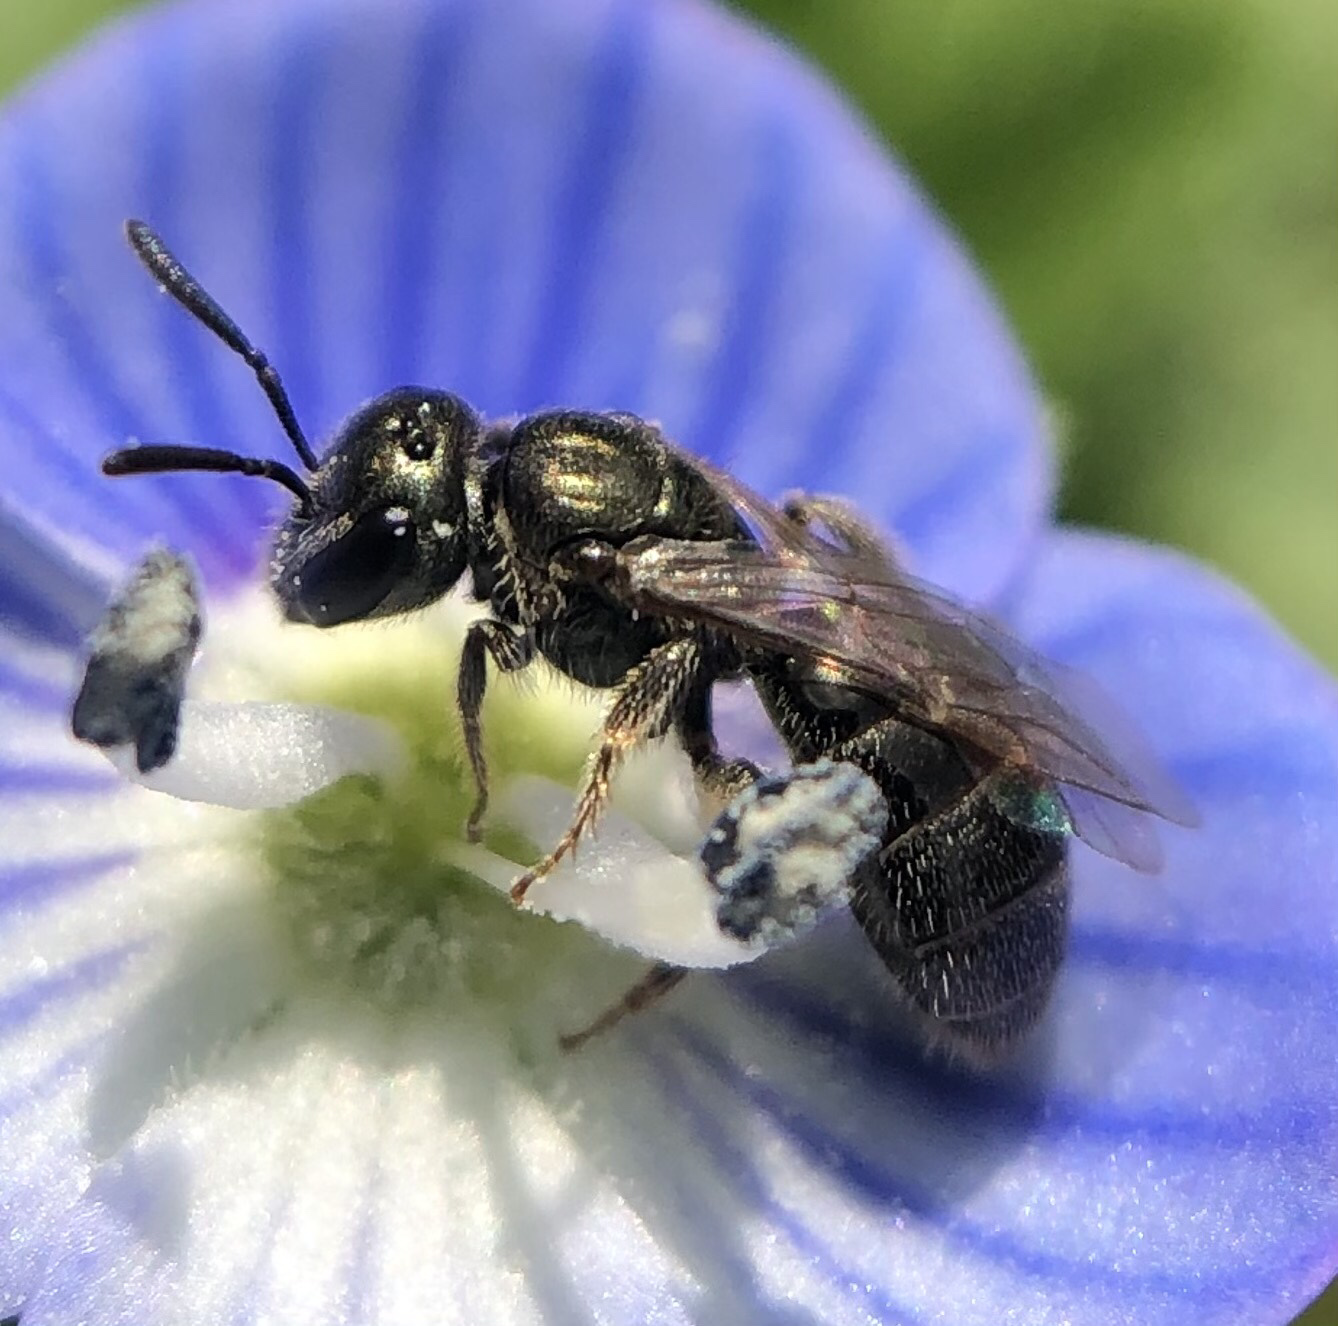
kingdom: Animalia
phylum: Arthropoda
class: Insecta
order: Hymenoptera
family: Halictidae
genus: Lasioglossum
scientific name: Lasioglossum imitatum
